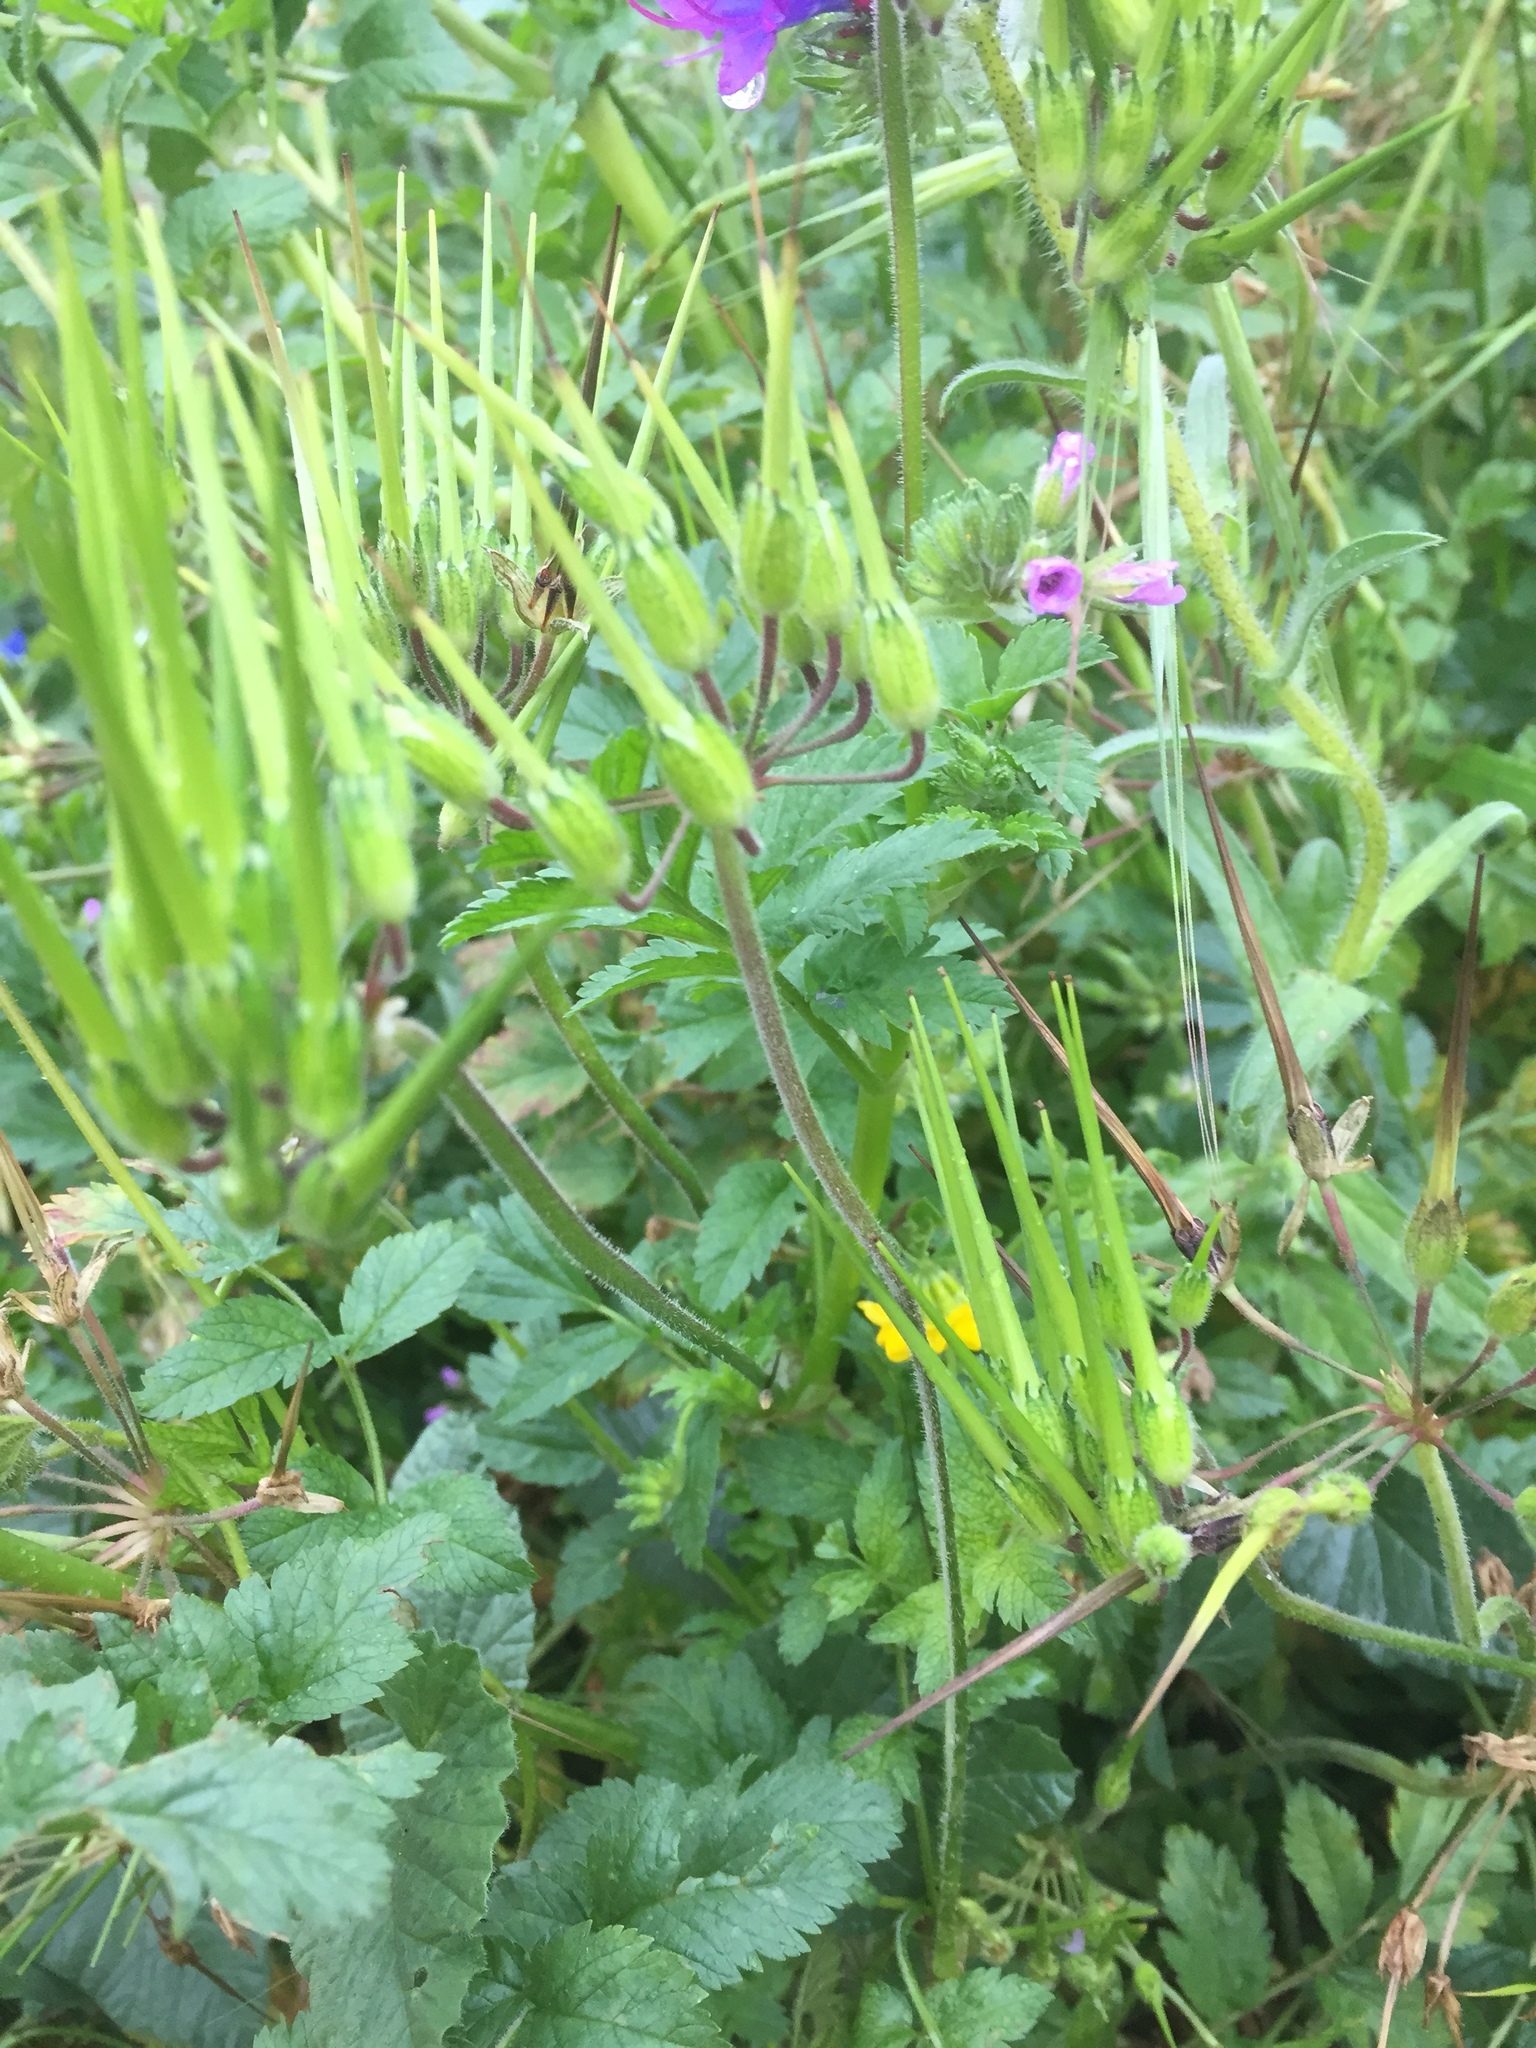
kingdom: Plantae
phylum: Tracheophyta
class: Magnoliopsida
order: Geraniales
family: Geraniaceae
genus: Erodium
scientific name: Erodium moschatum
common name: Musk stork's-bill
